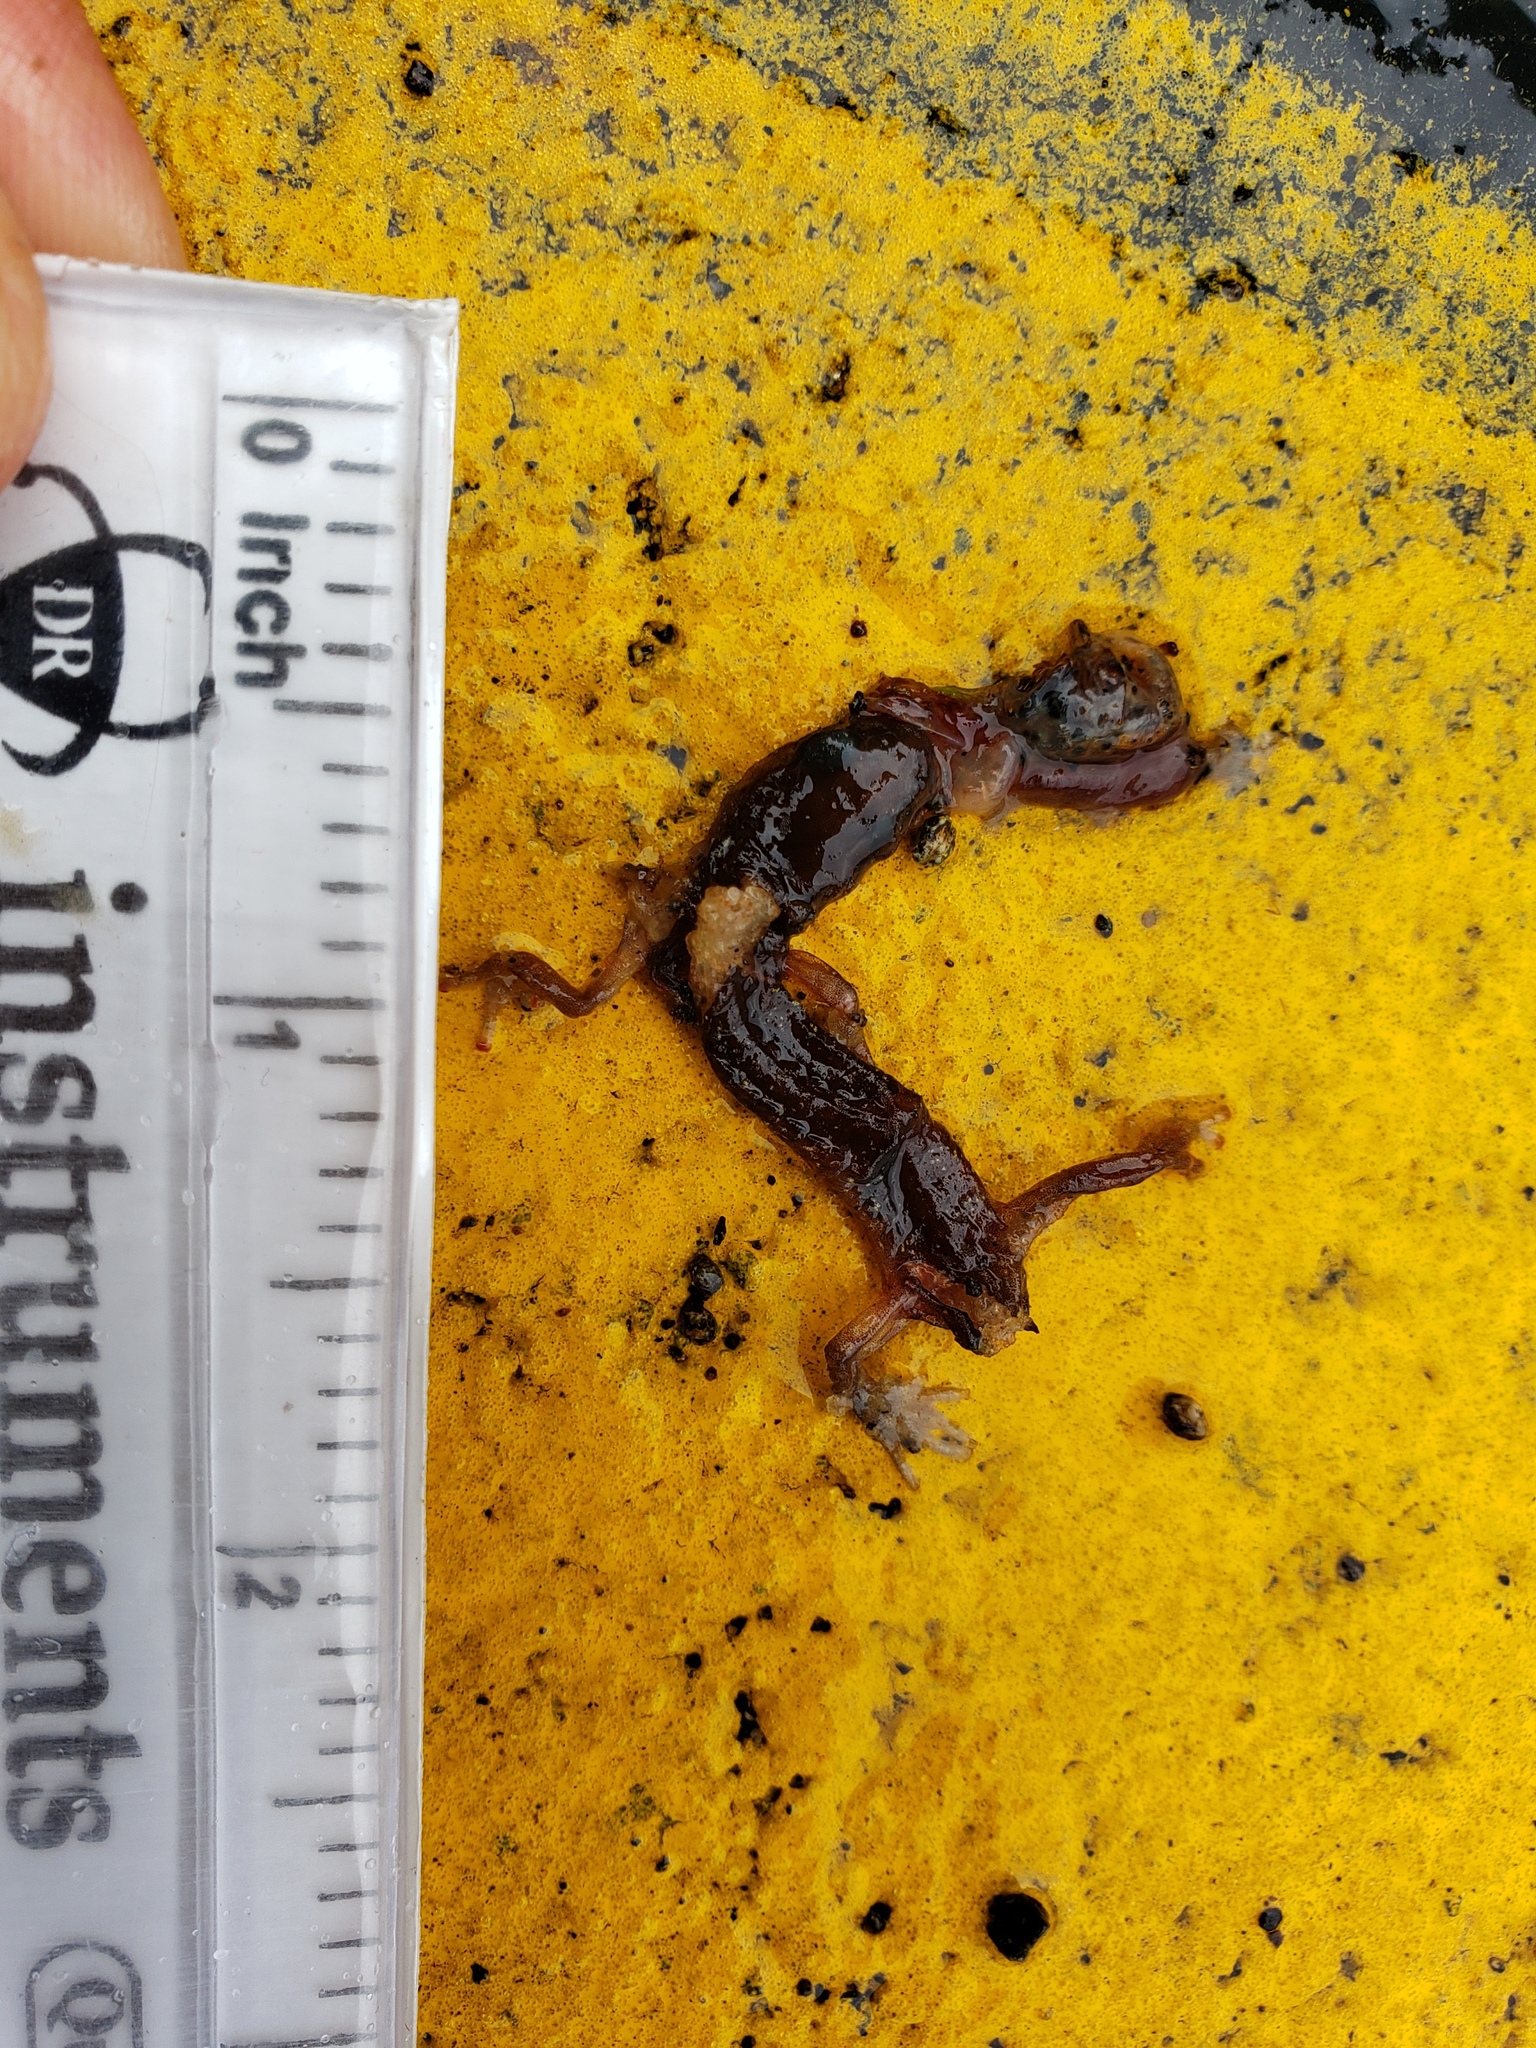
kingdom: Animalia
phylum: Chordata
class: Amphibia
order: Caudata
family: Plethodontidae
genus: Aneides
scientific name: Aneides lugubris
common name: Arboreal salamander
